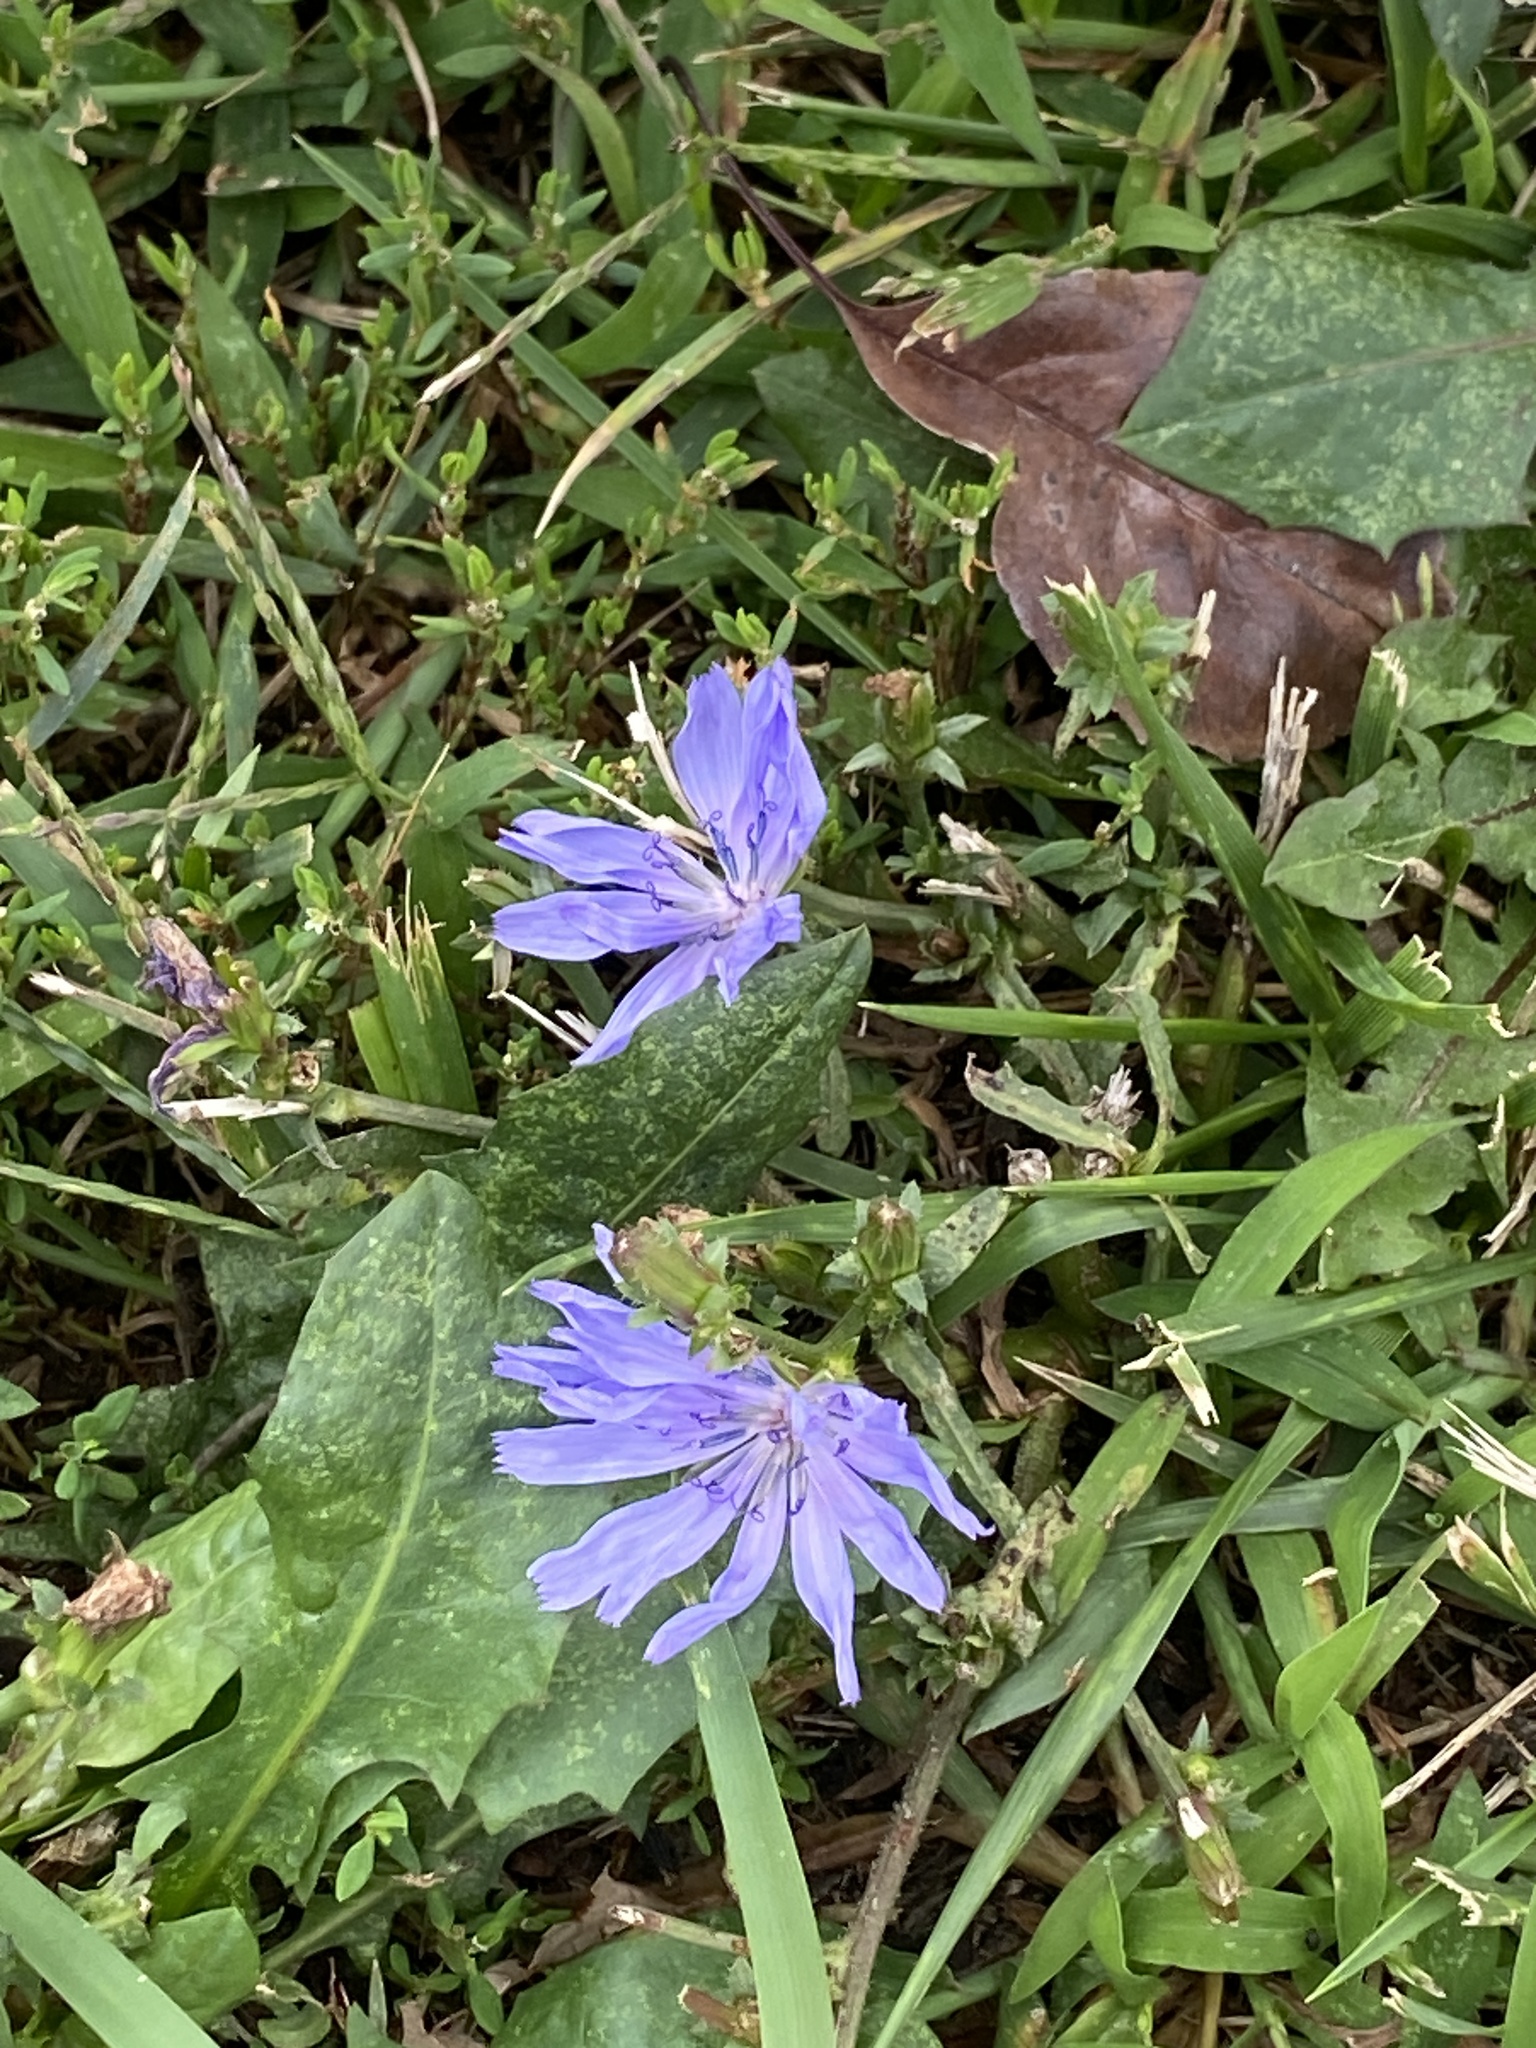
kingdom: Plantae
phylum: Tracheophyta
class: Magnoliopsida
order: Asterales
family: Asteraceae
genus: Cichorium
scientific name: Cichorium intybus
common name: Chicory
